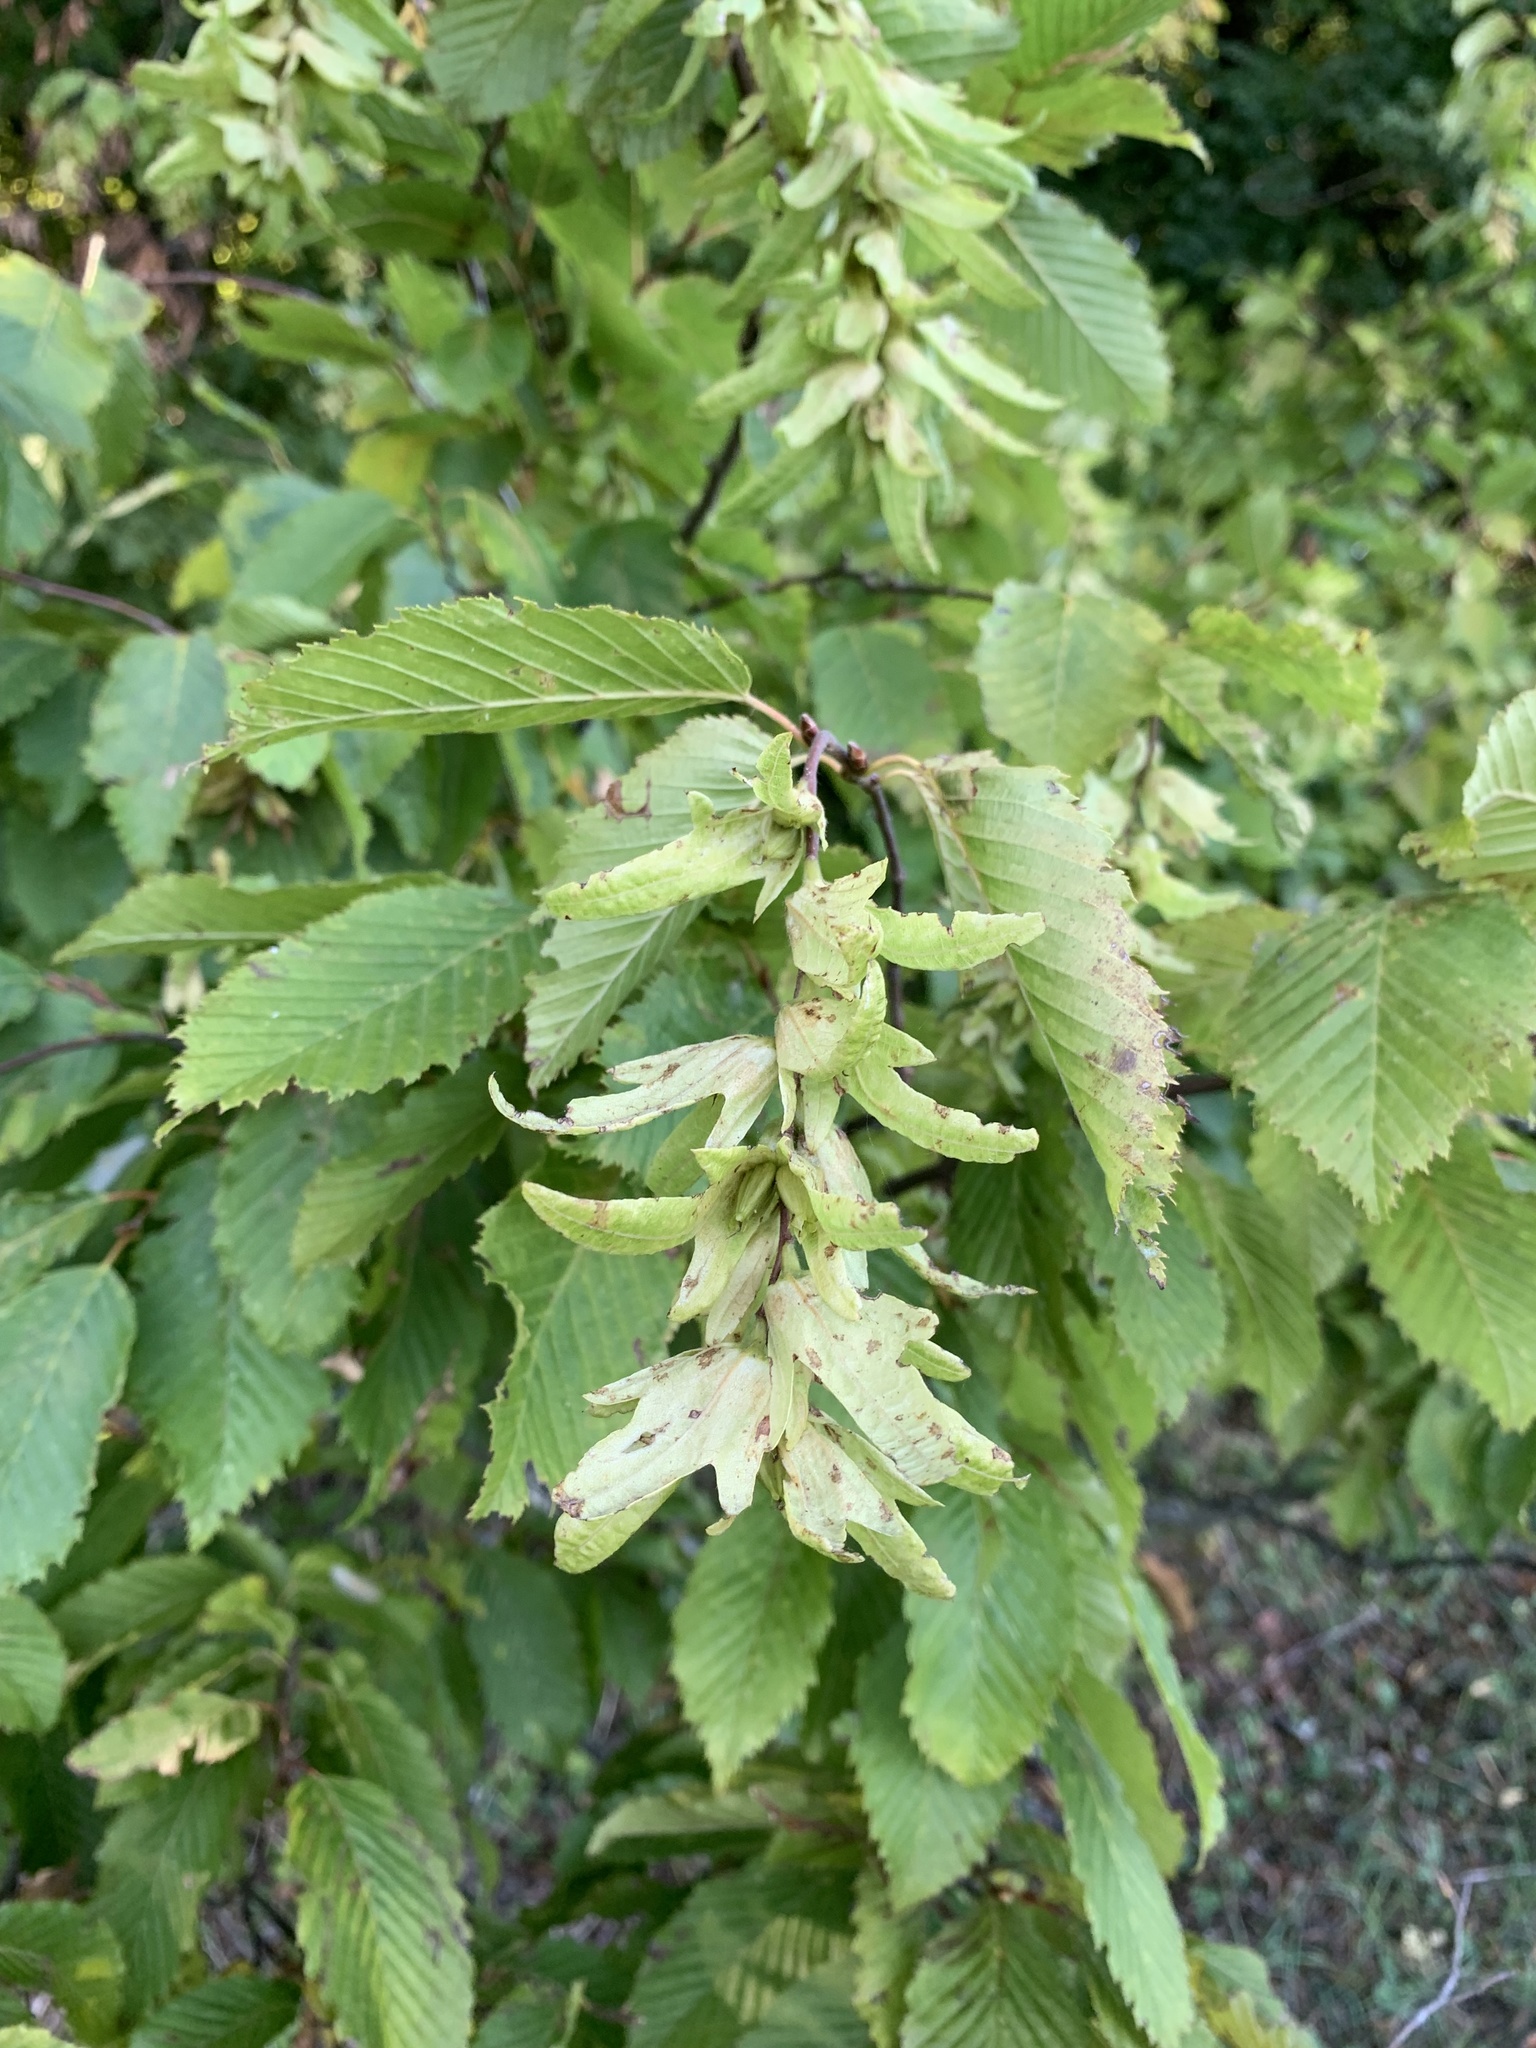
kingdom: Plantae
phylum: Tracheophyta
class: Magnoliopsida
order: Fagales
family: Betulaceae
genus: Carpinus
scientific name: Carpinus betulus
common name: Hornbeam
